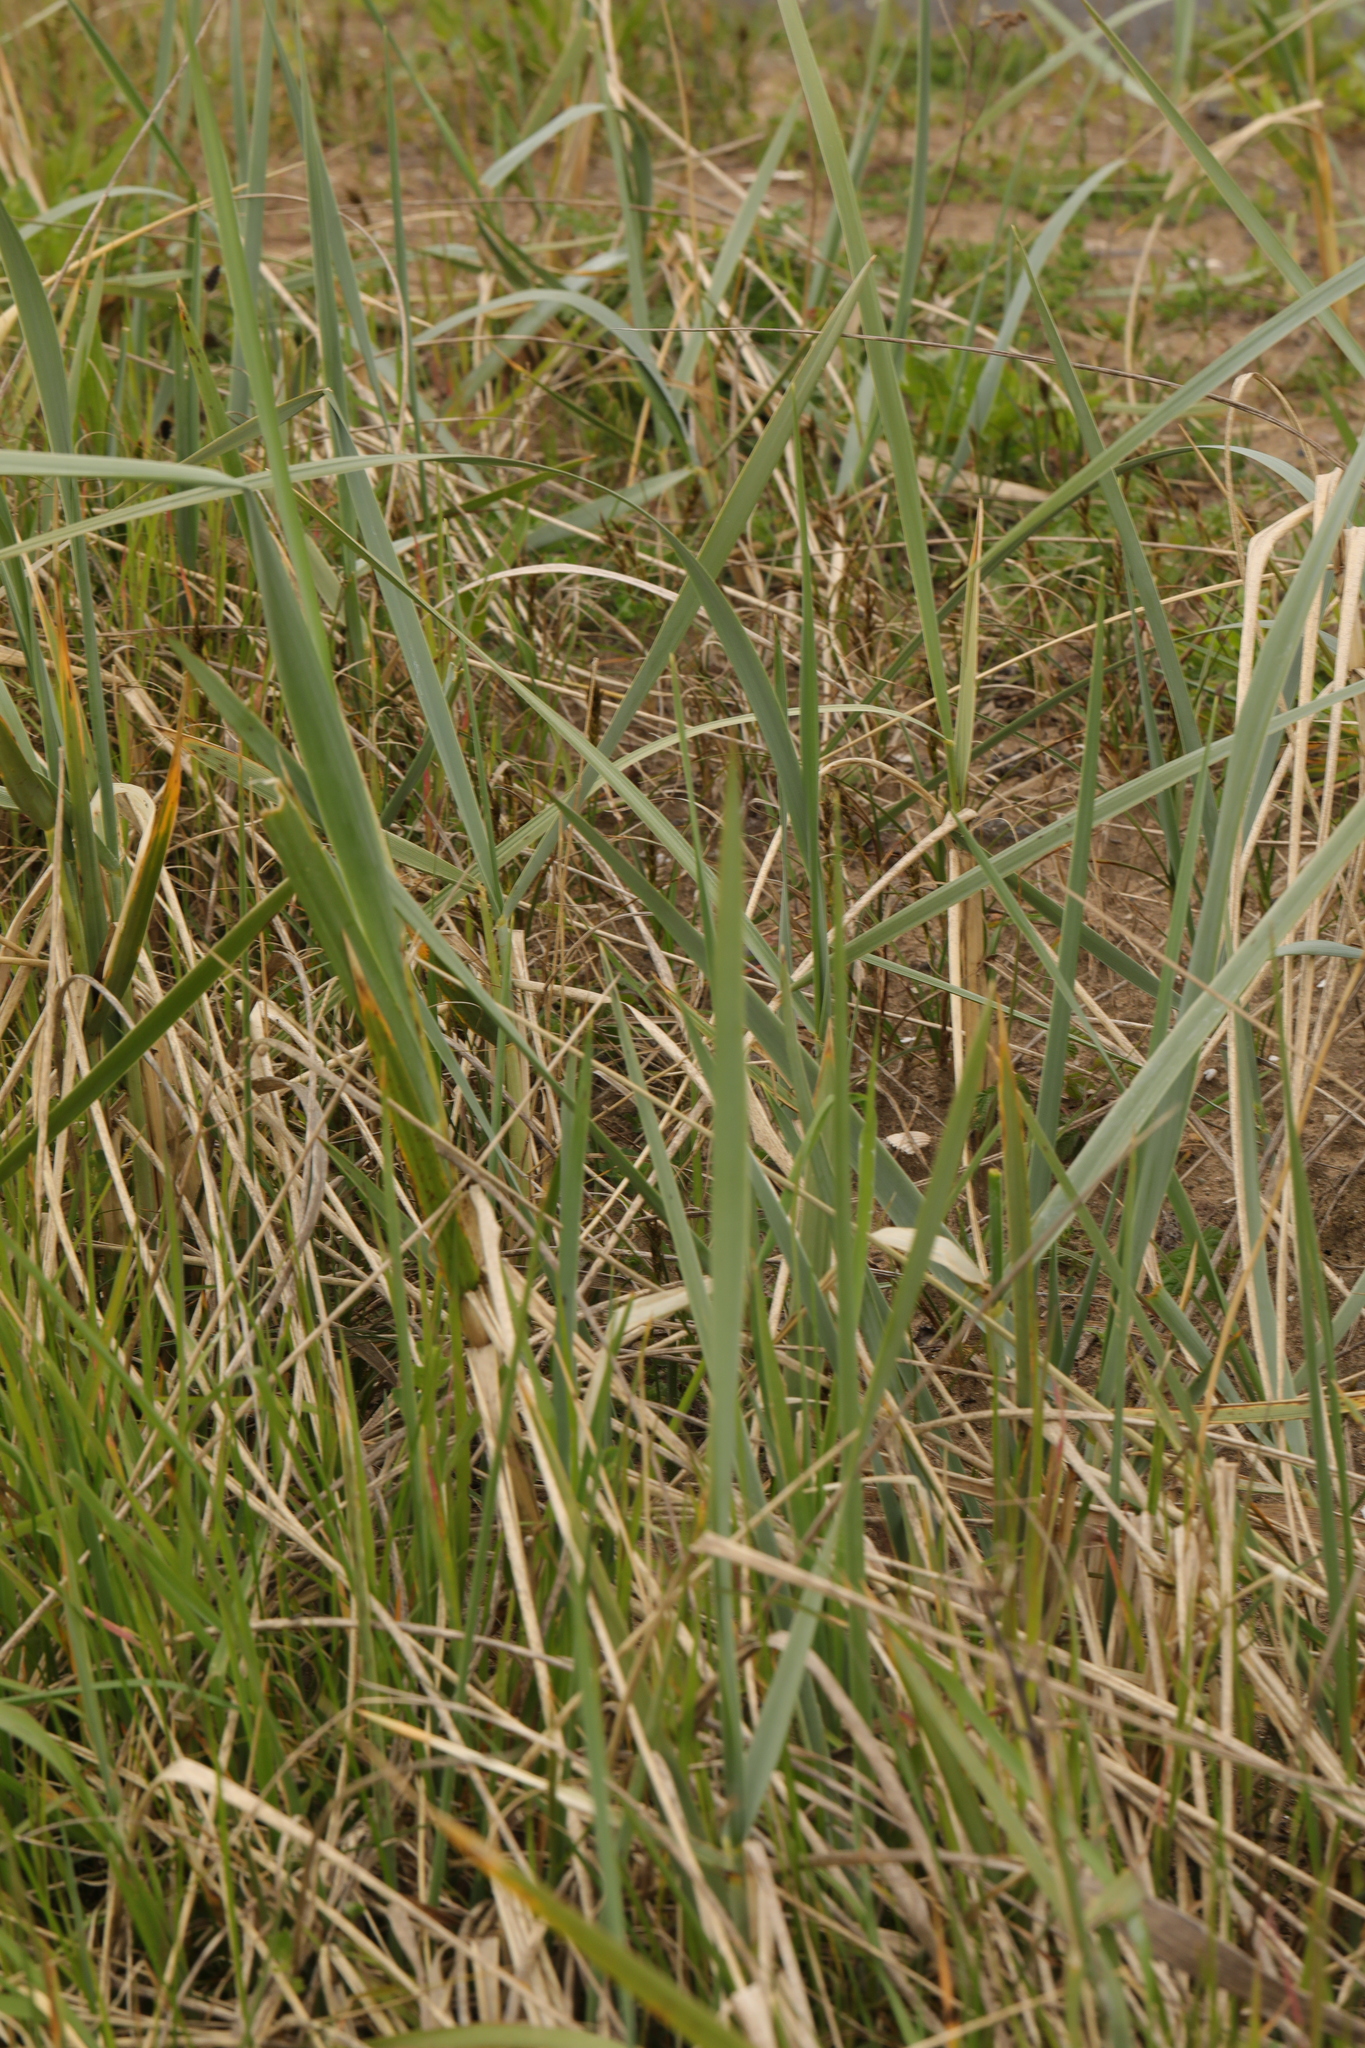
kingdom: Plantae
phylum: Tracheophyta
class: Liliopsida
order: Poales
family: Poaceae
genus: Leymus
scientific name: Leymus arenarius
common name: Lyme-grass
